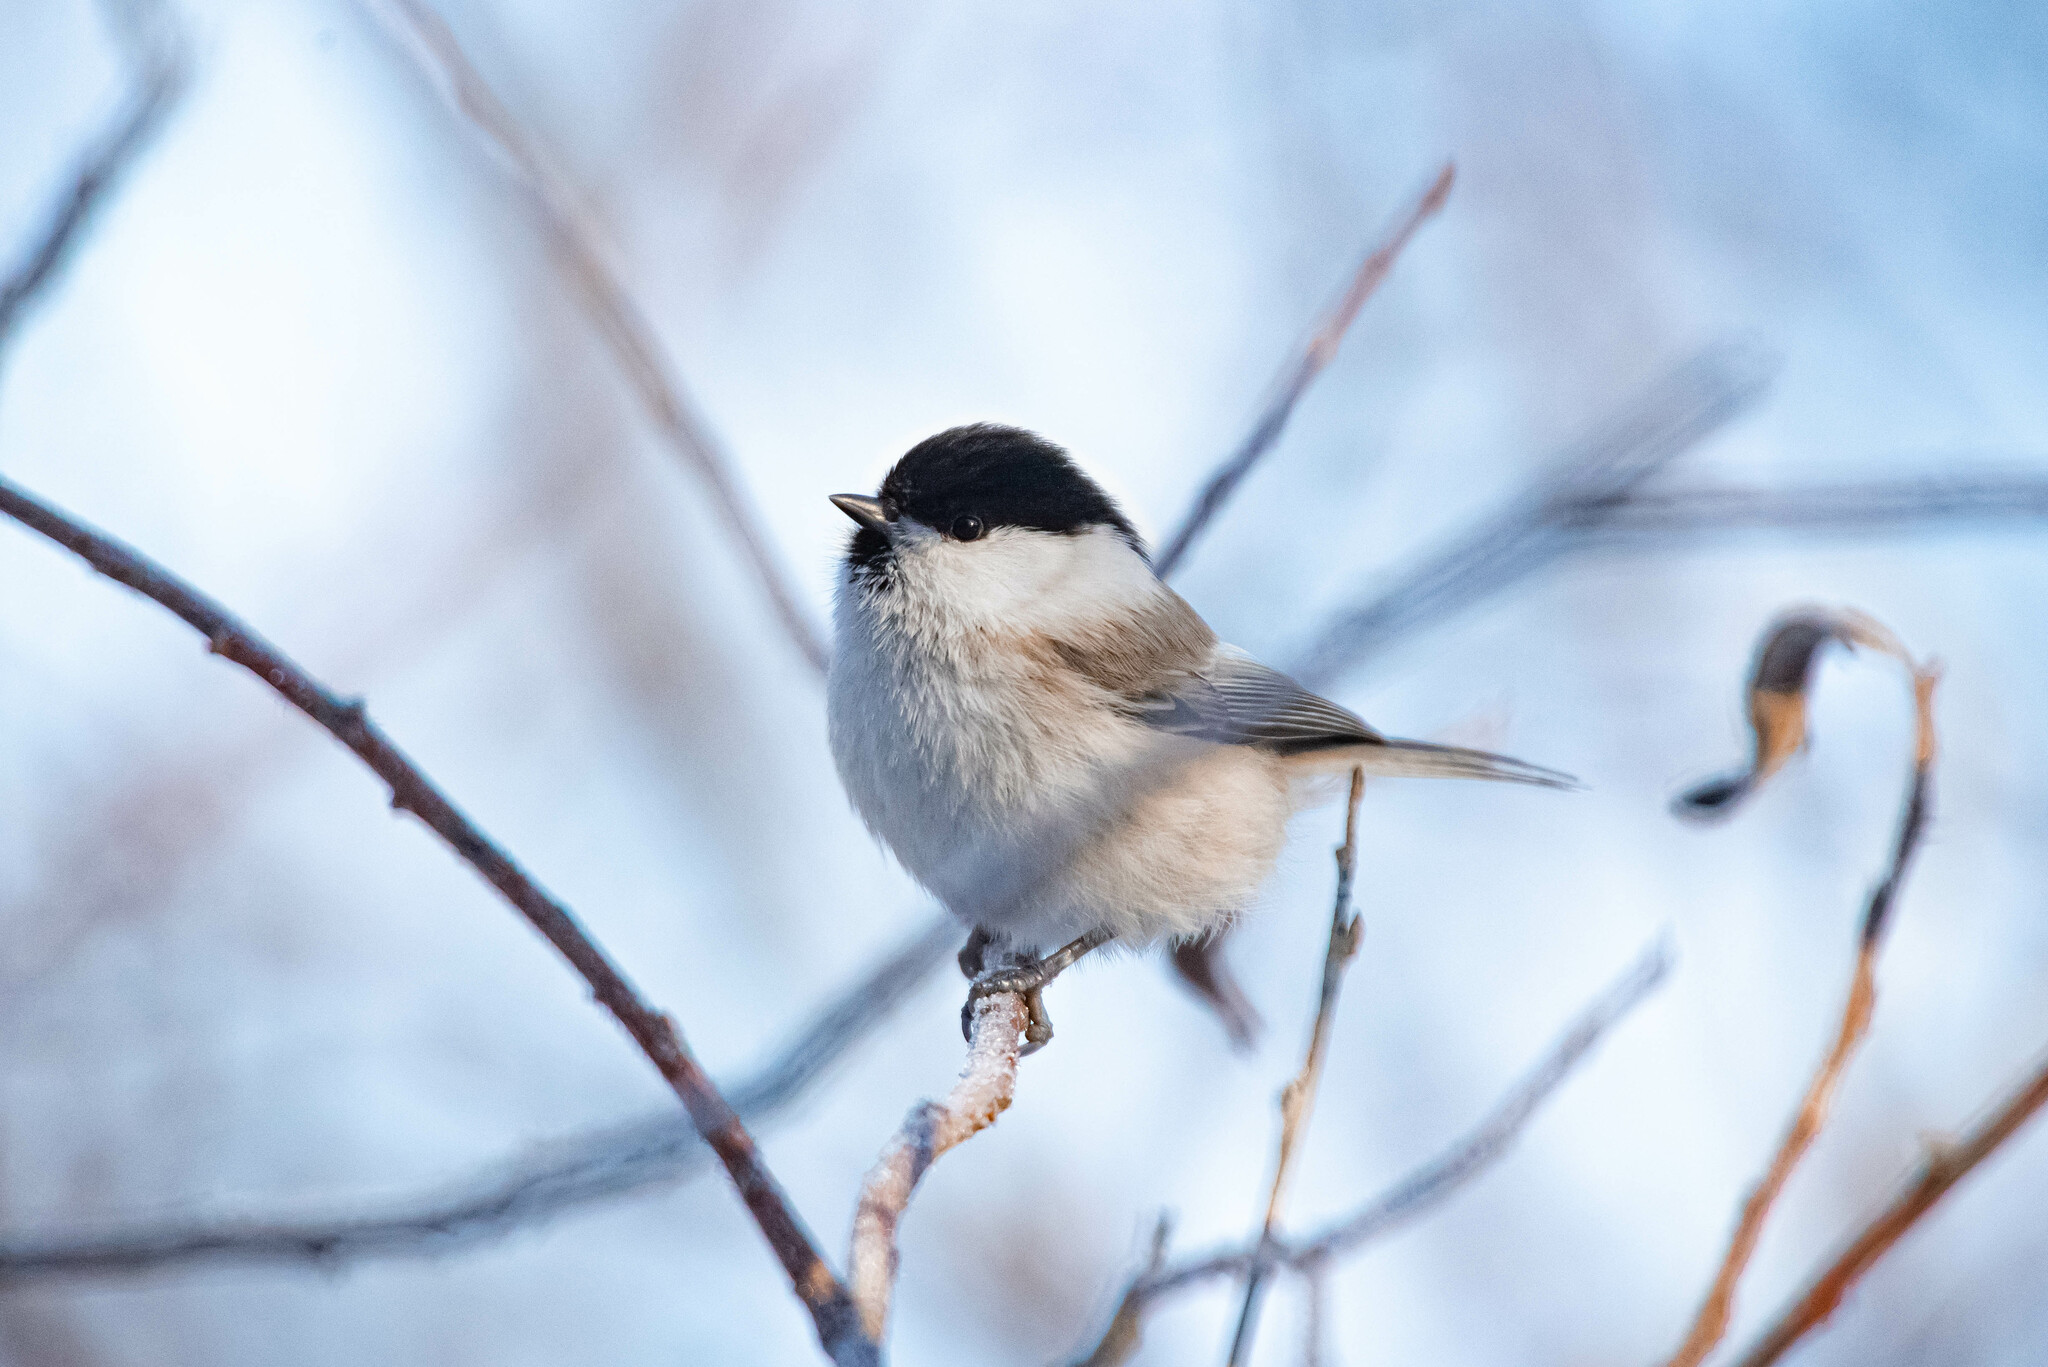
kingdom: Animalia
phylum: Chordata
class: Aves
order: Passeriformes
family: Paridae
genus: Poecile
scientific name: Poecile montanus
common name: Willow tit
